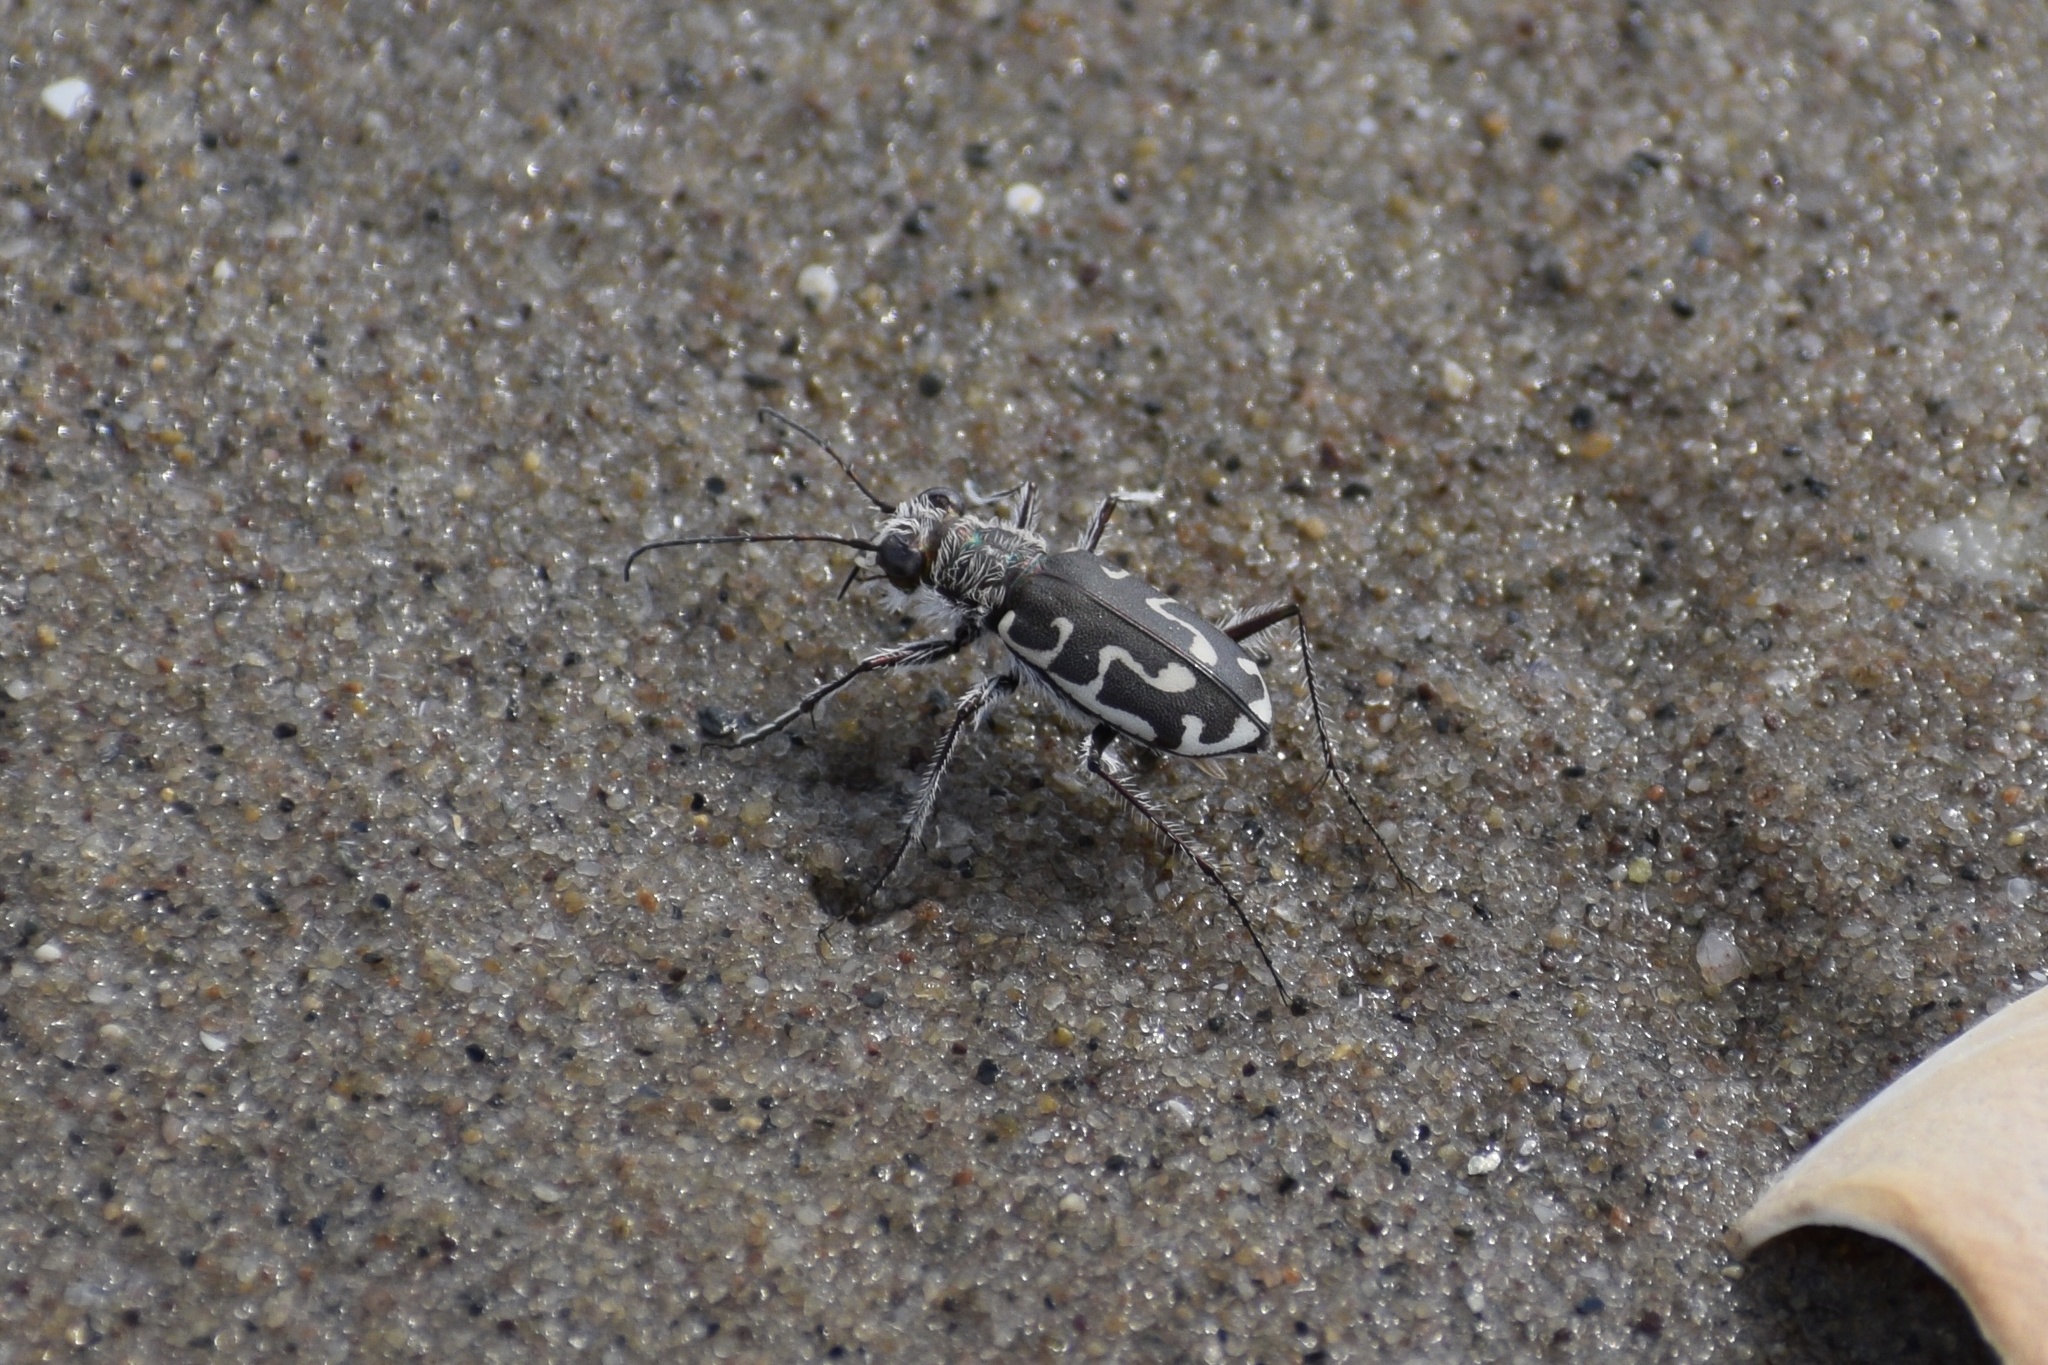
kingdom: Animalia
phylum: Arthropoda
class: Insecta
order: Coleoptera
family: Carabidae
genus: Cicindela
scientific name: Cicindela hirticollis
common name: Hairy-necked tiger beetle
